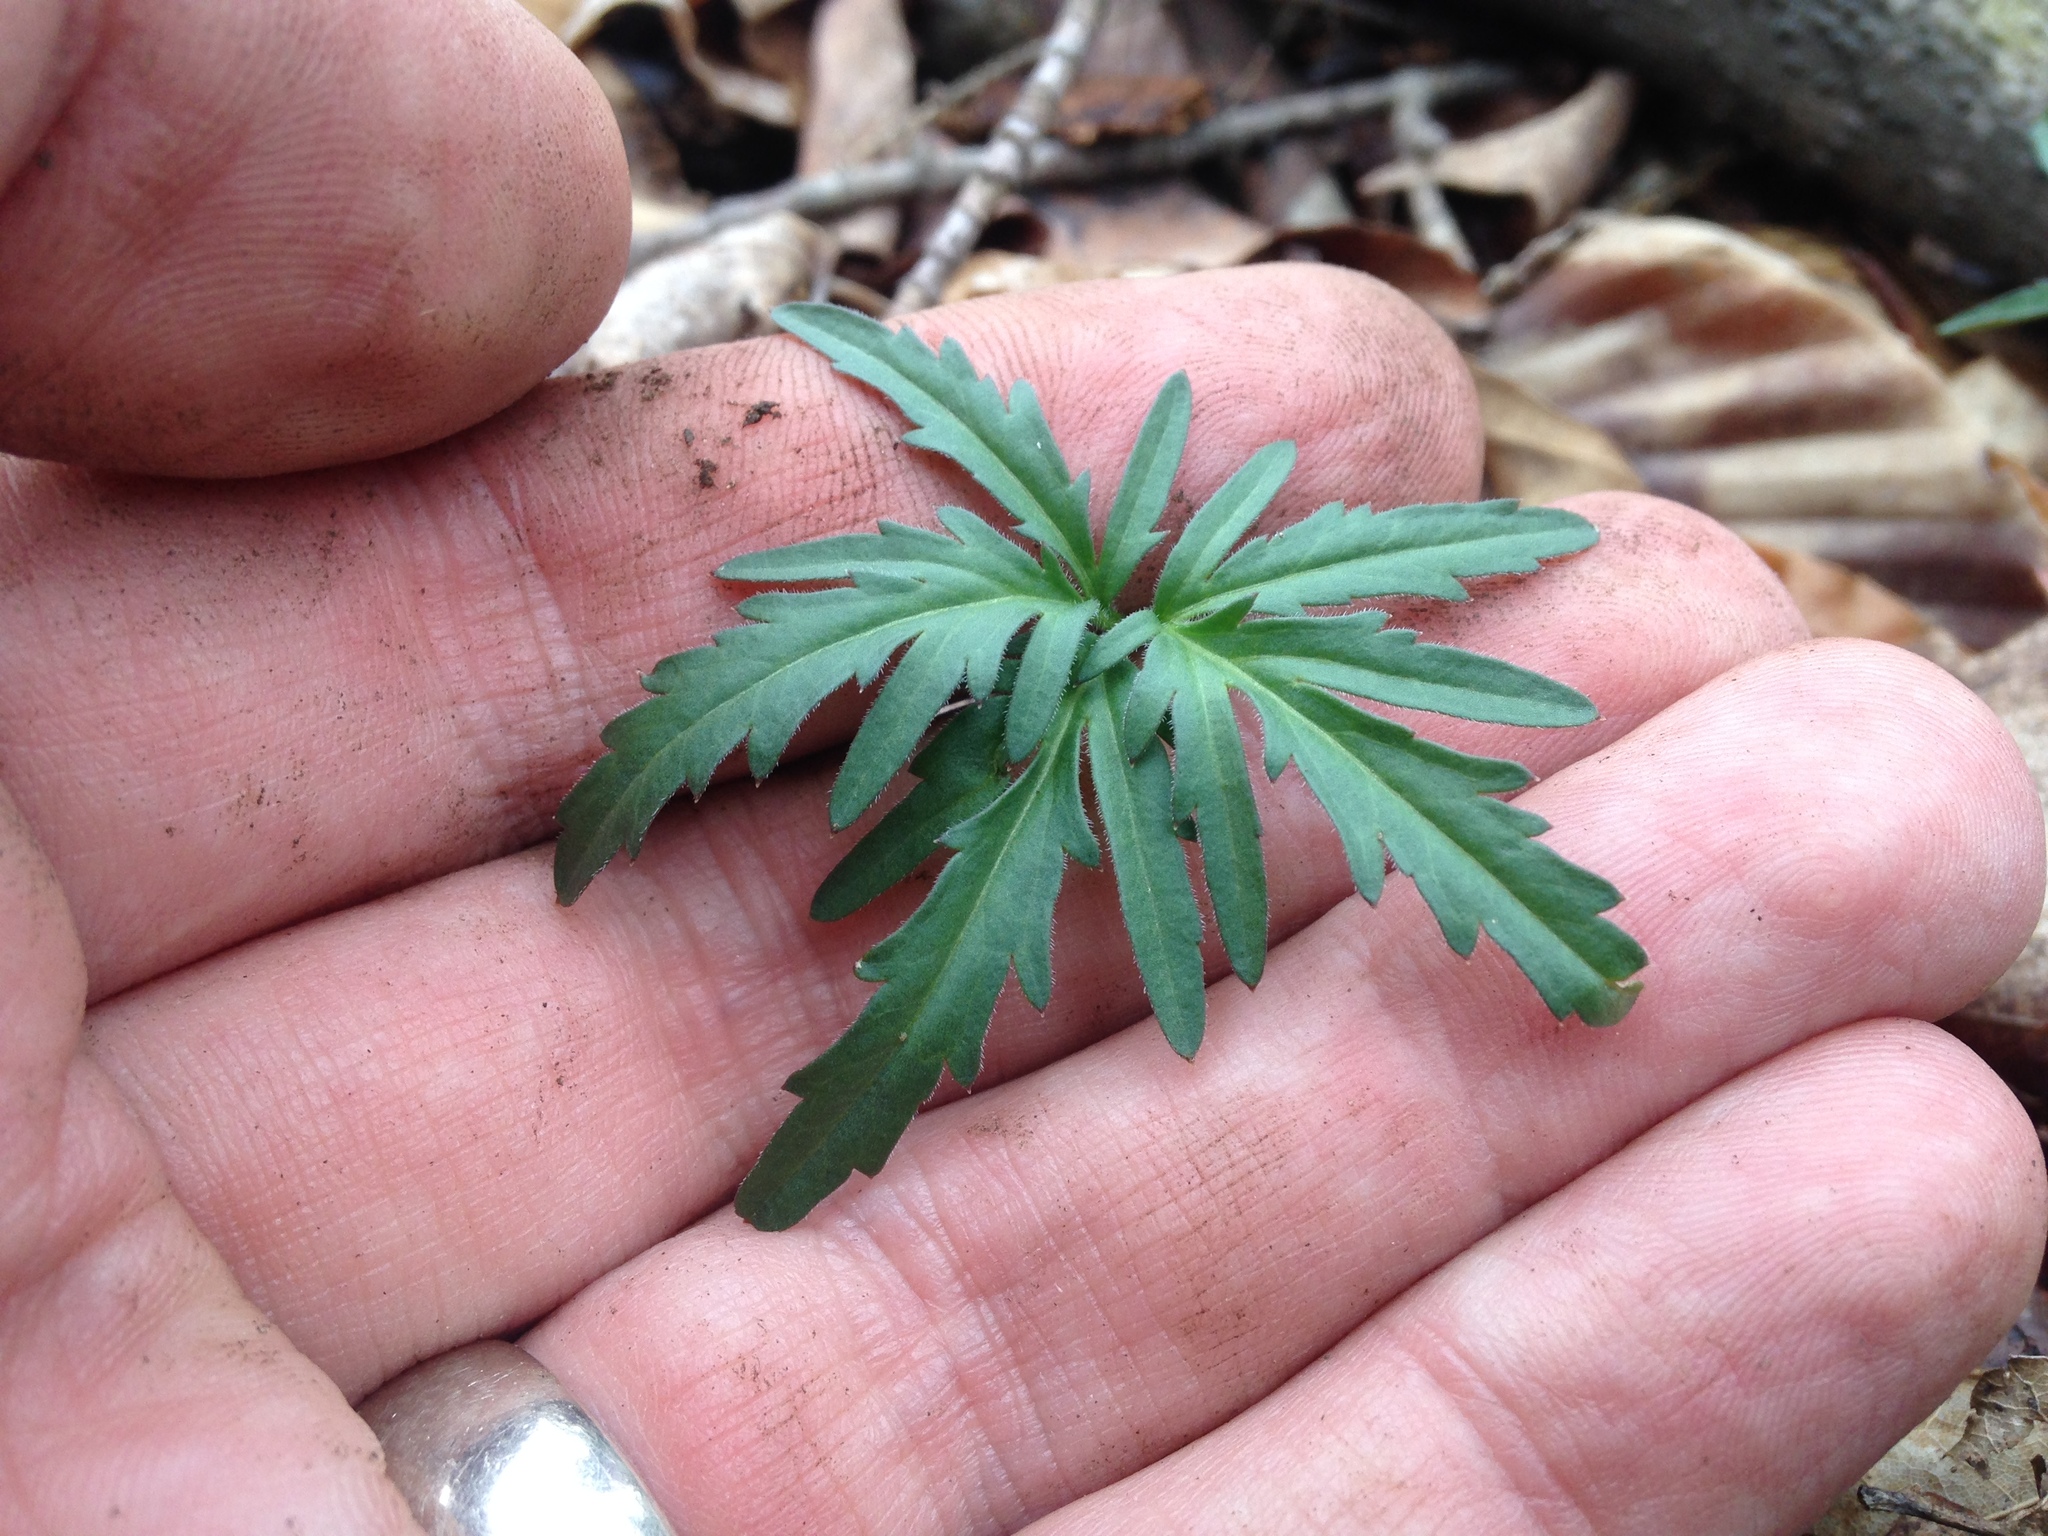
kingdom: Plantae
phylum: Tracheophyta
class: Magnoliopsida
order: Brassicales
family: Brassicaceae
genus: Cardamine
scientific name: Cardamine concatenata
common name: Cut-leaf toothcup
